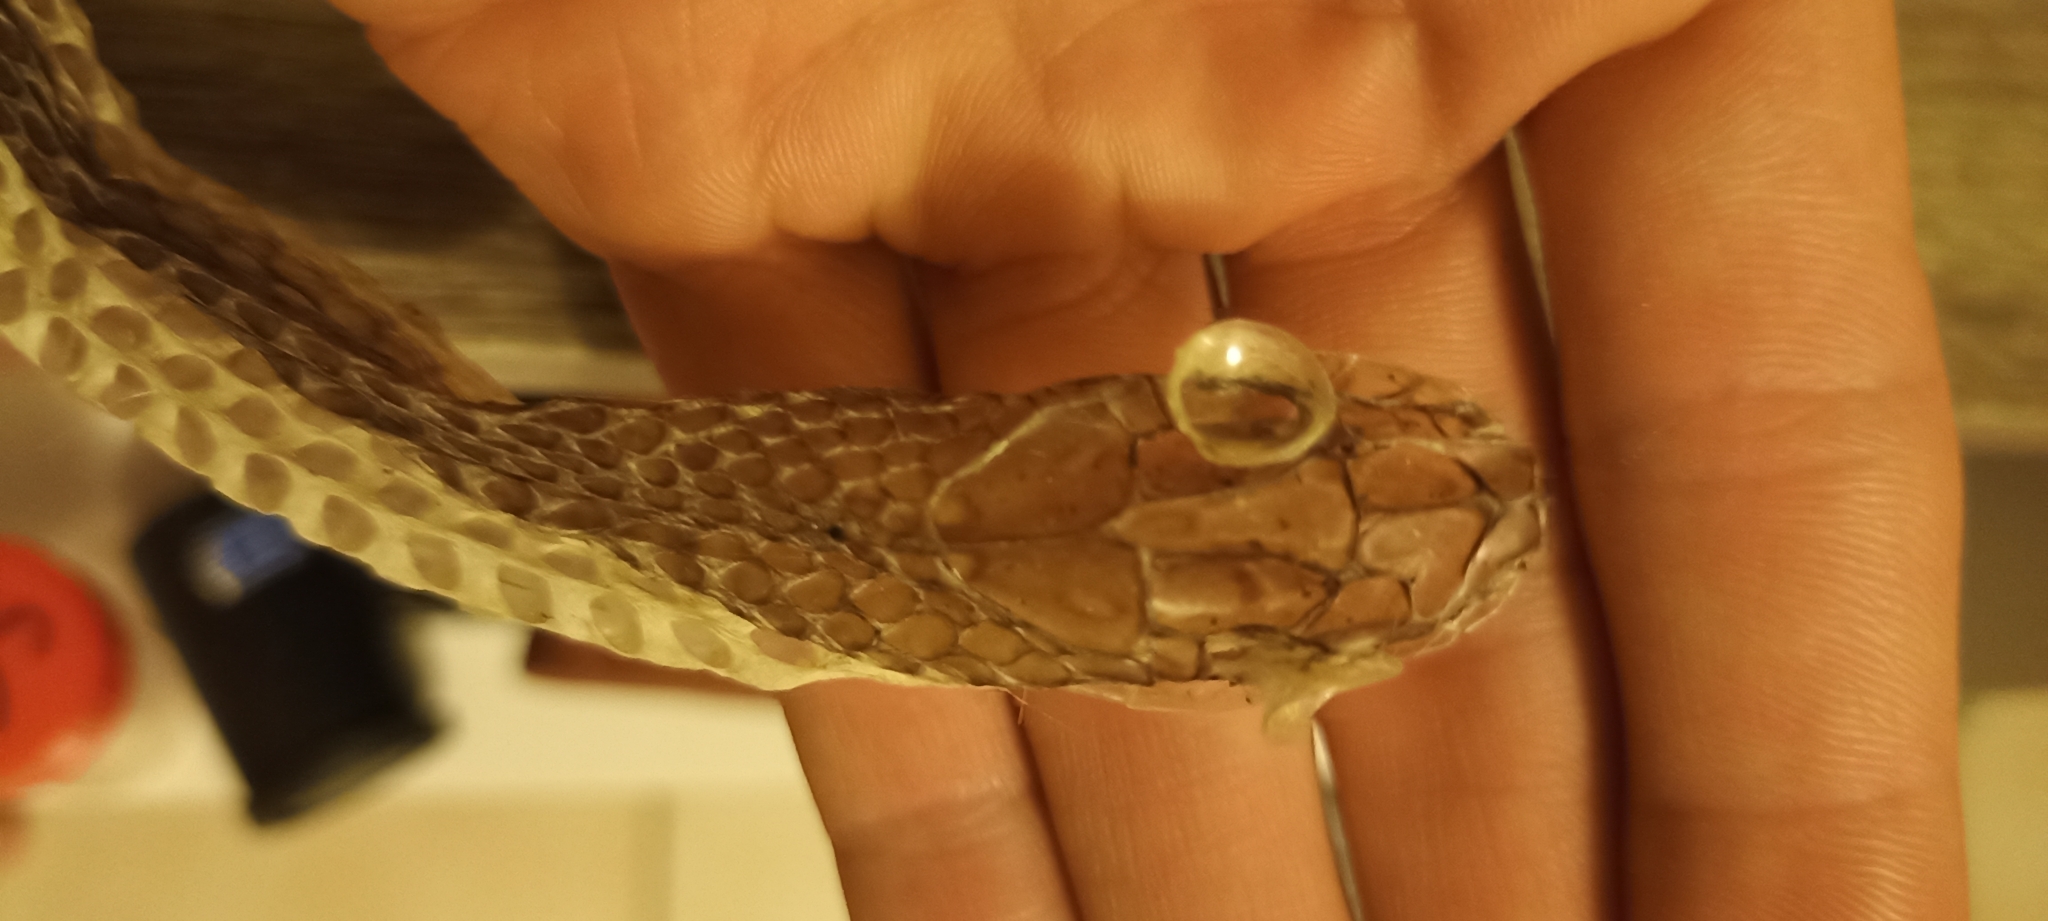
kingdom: Animalia
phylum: Chordata
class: Squamata
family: Psammophiidae
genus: Malpolon
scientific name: Malpolon monspessulanus
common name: Montpellier snake
